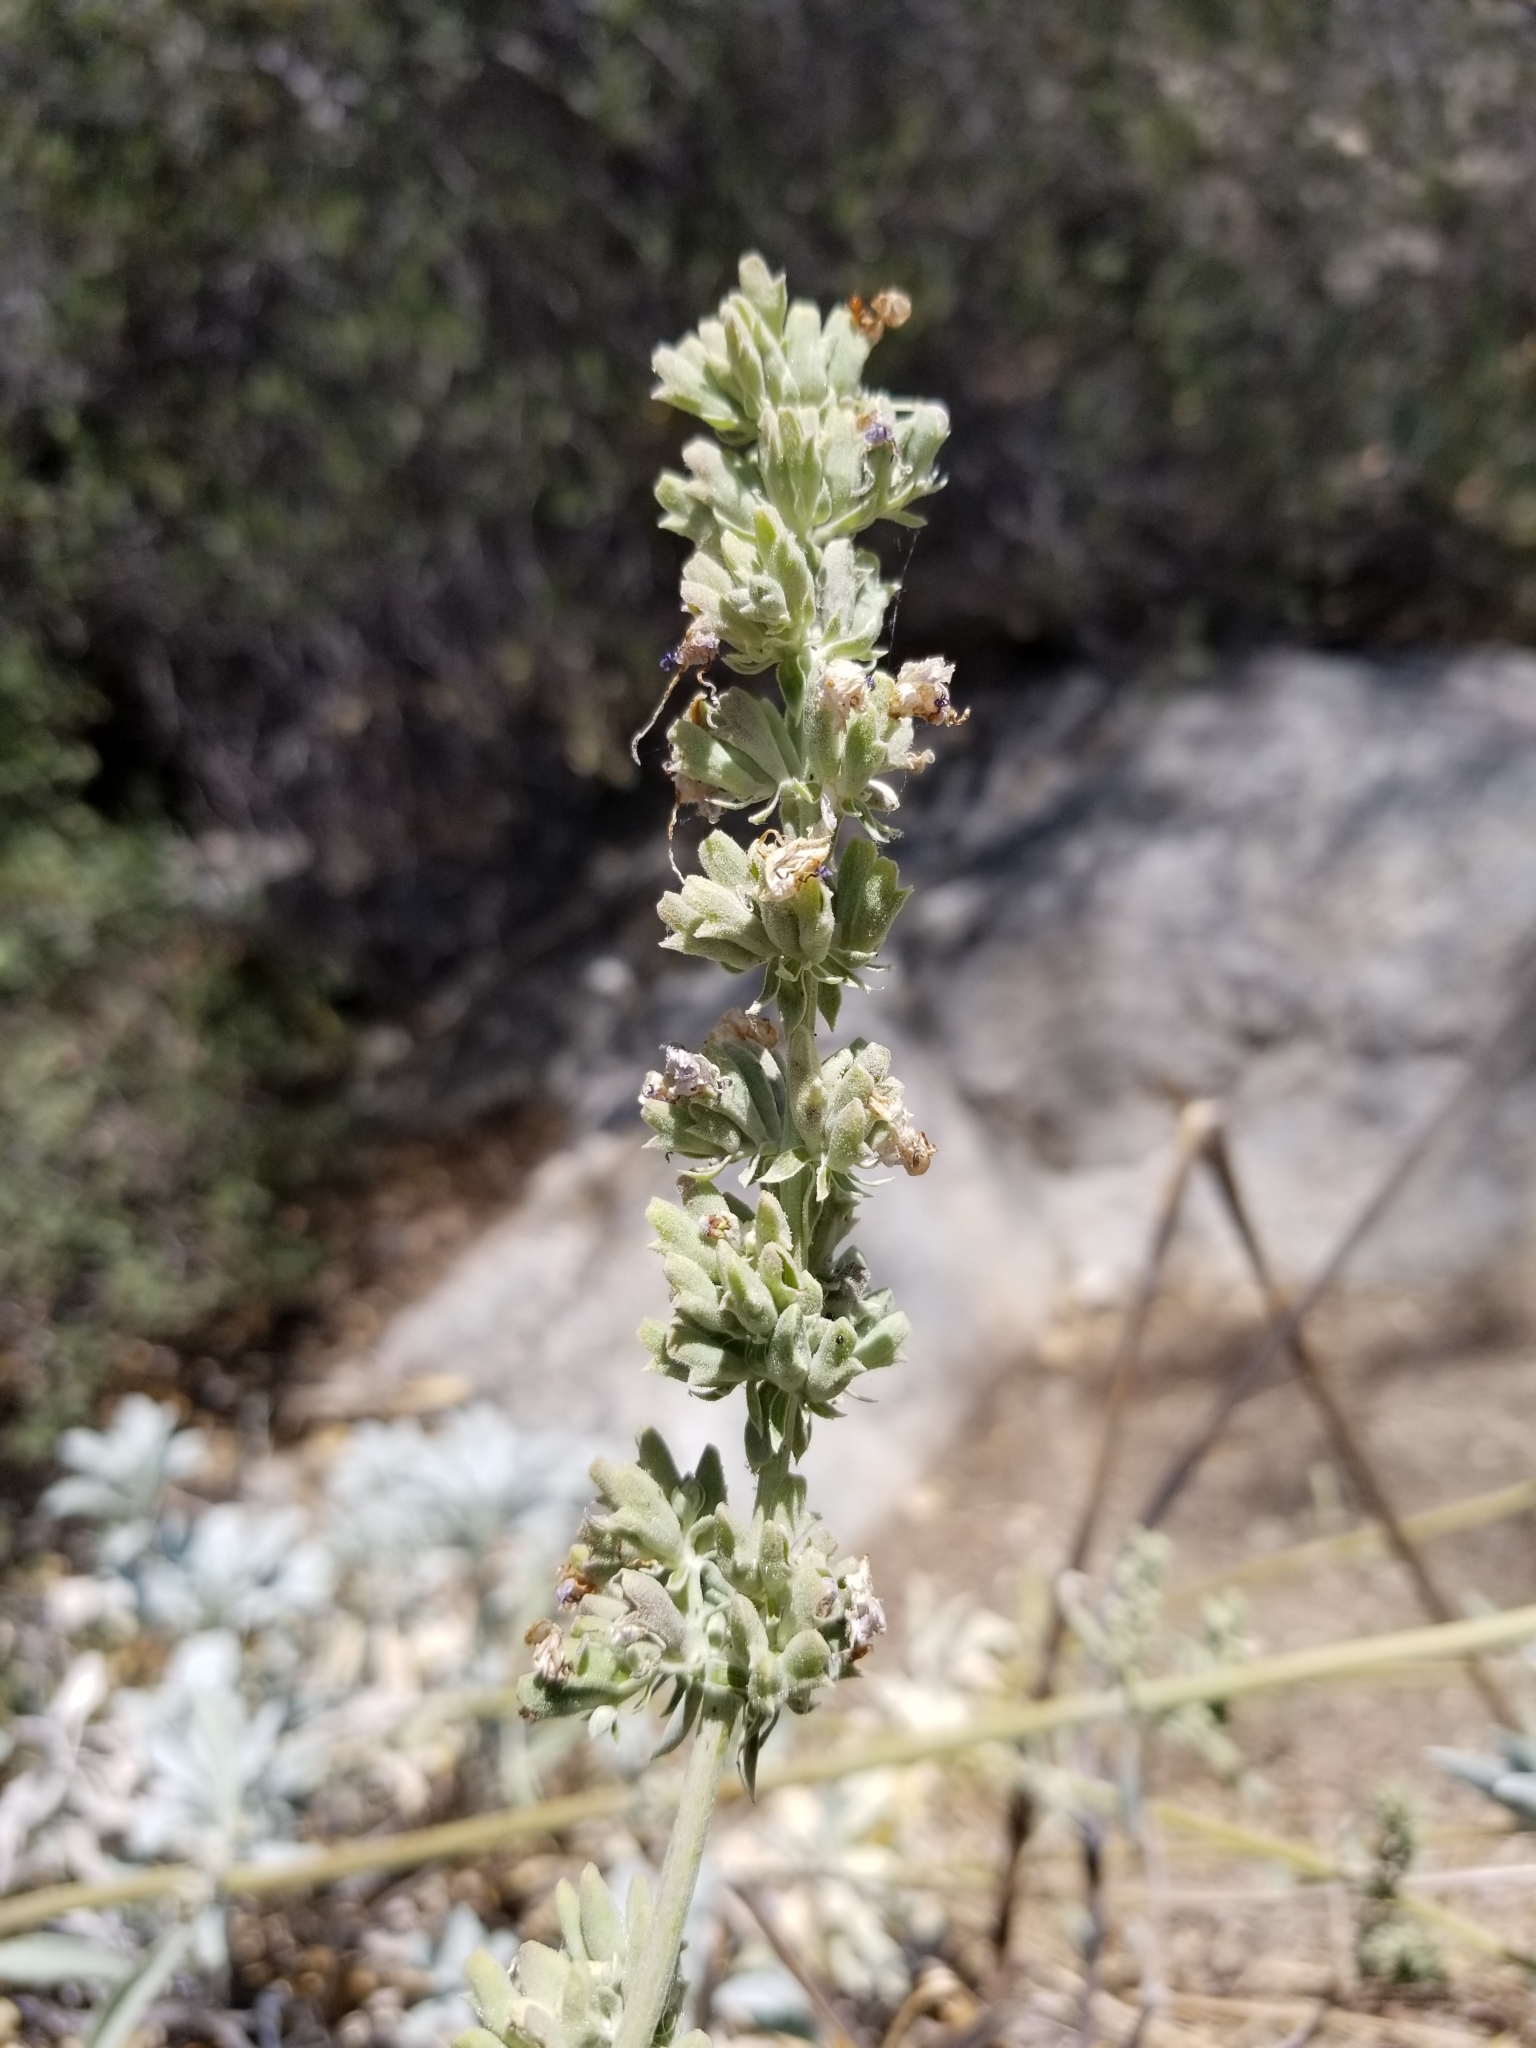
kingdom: Plantae
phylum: Tracheophyta
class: Magnoliopsida
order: Lamiales
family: Lamiaceae
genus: Salvia
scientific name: Salvia apiana
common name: White sage
